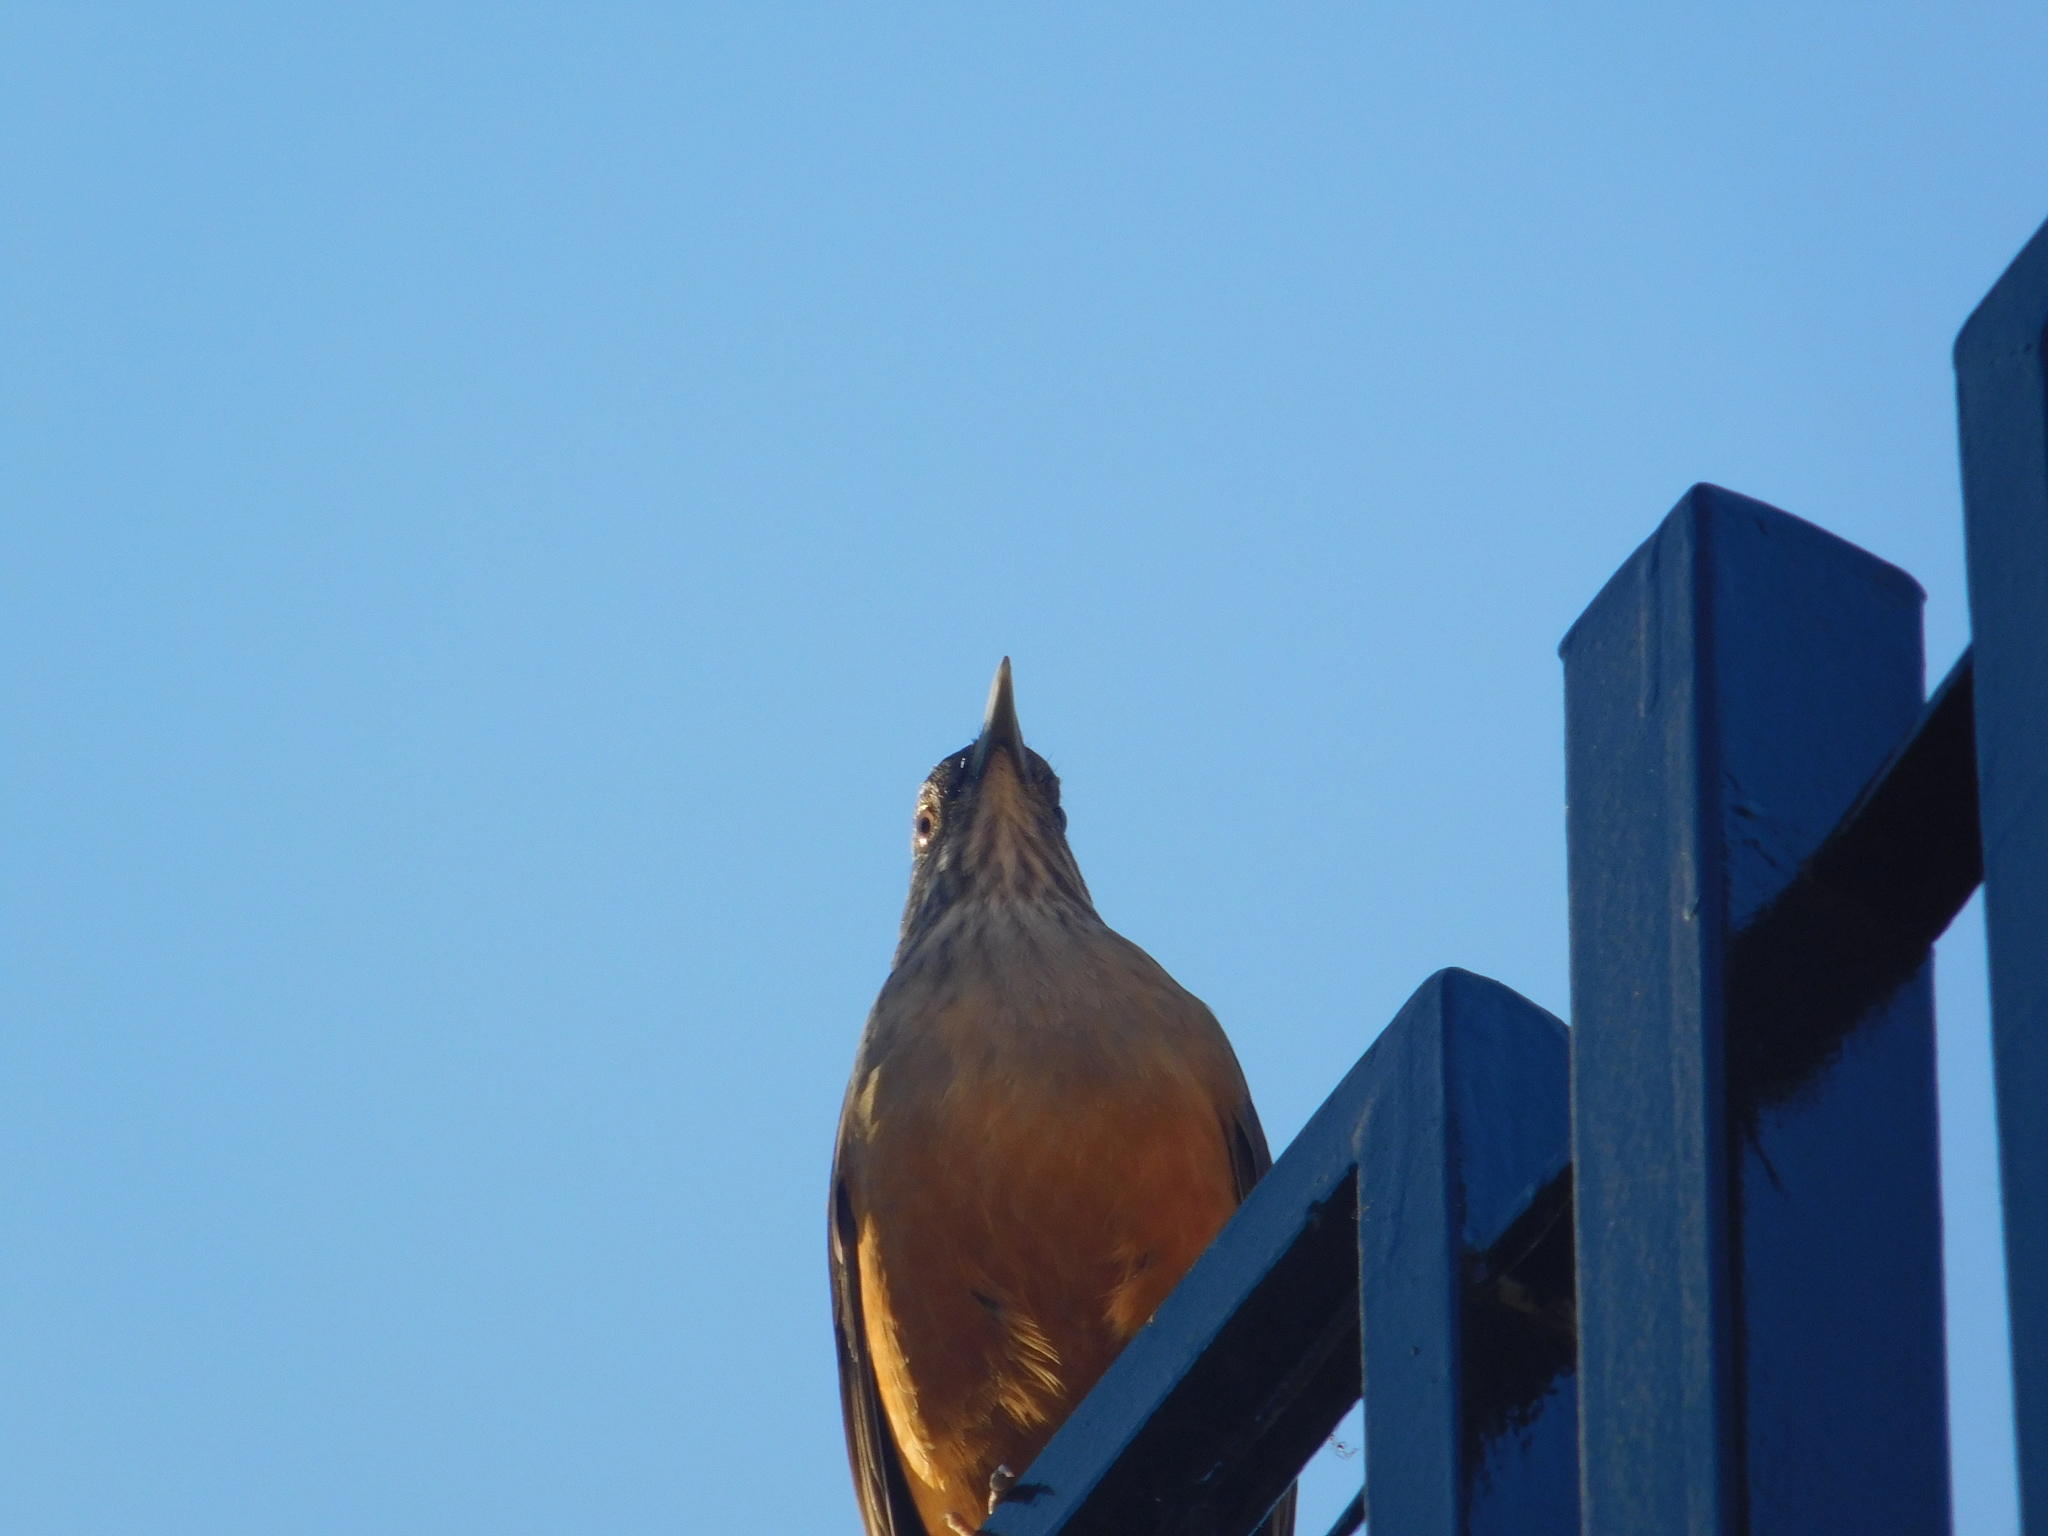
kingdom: Animalia
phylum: Chordata
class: Aves
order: Passeriformes
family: Turdidae
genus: Turdus
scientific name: Turdus rufiventris
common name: Rufous-bellied thrush
